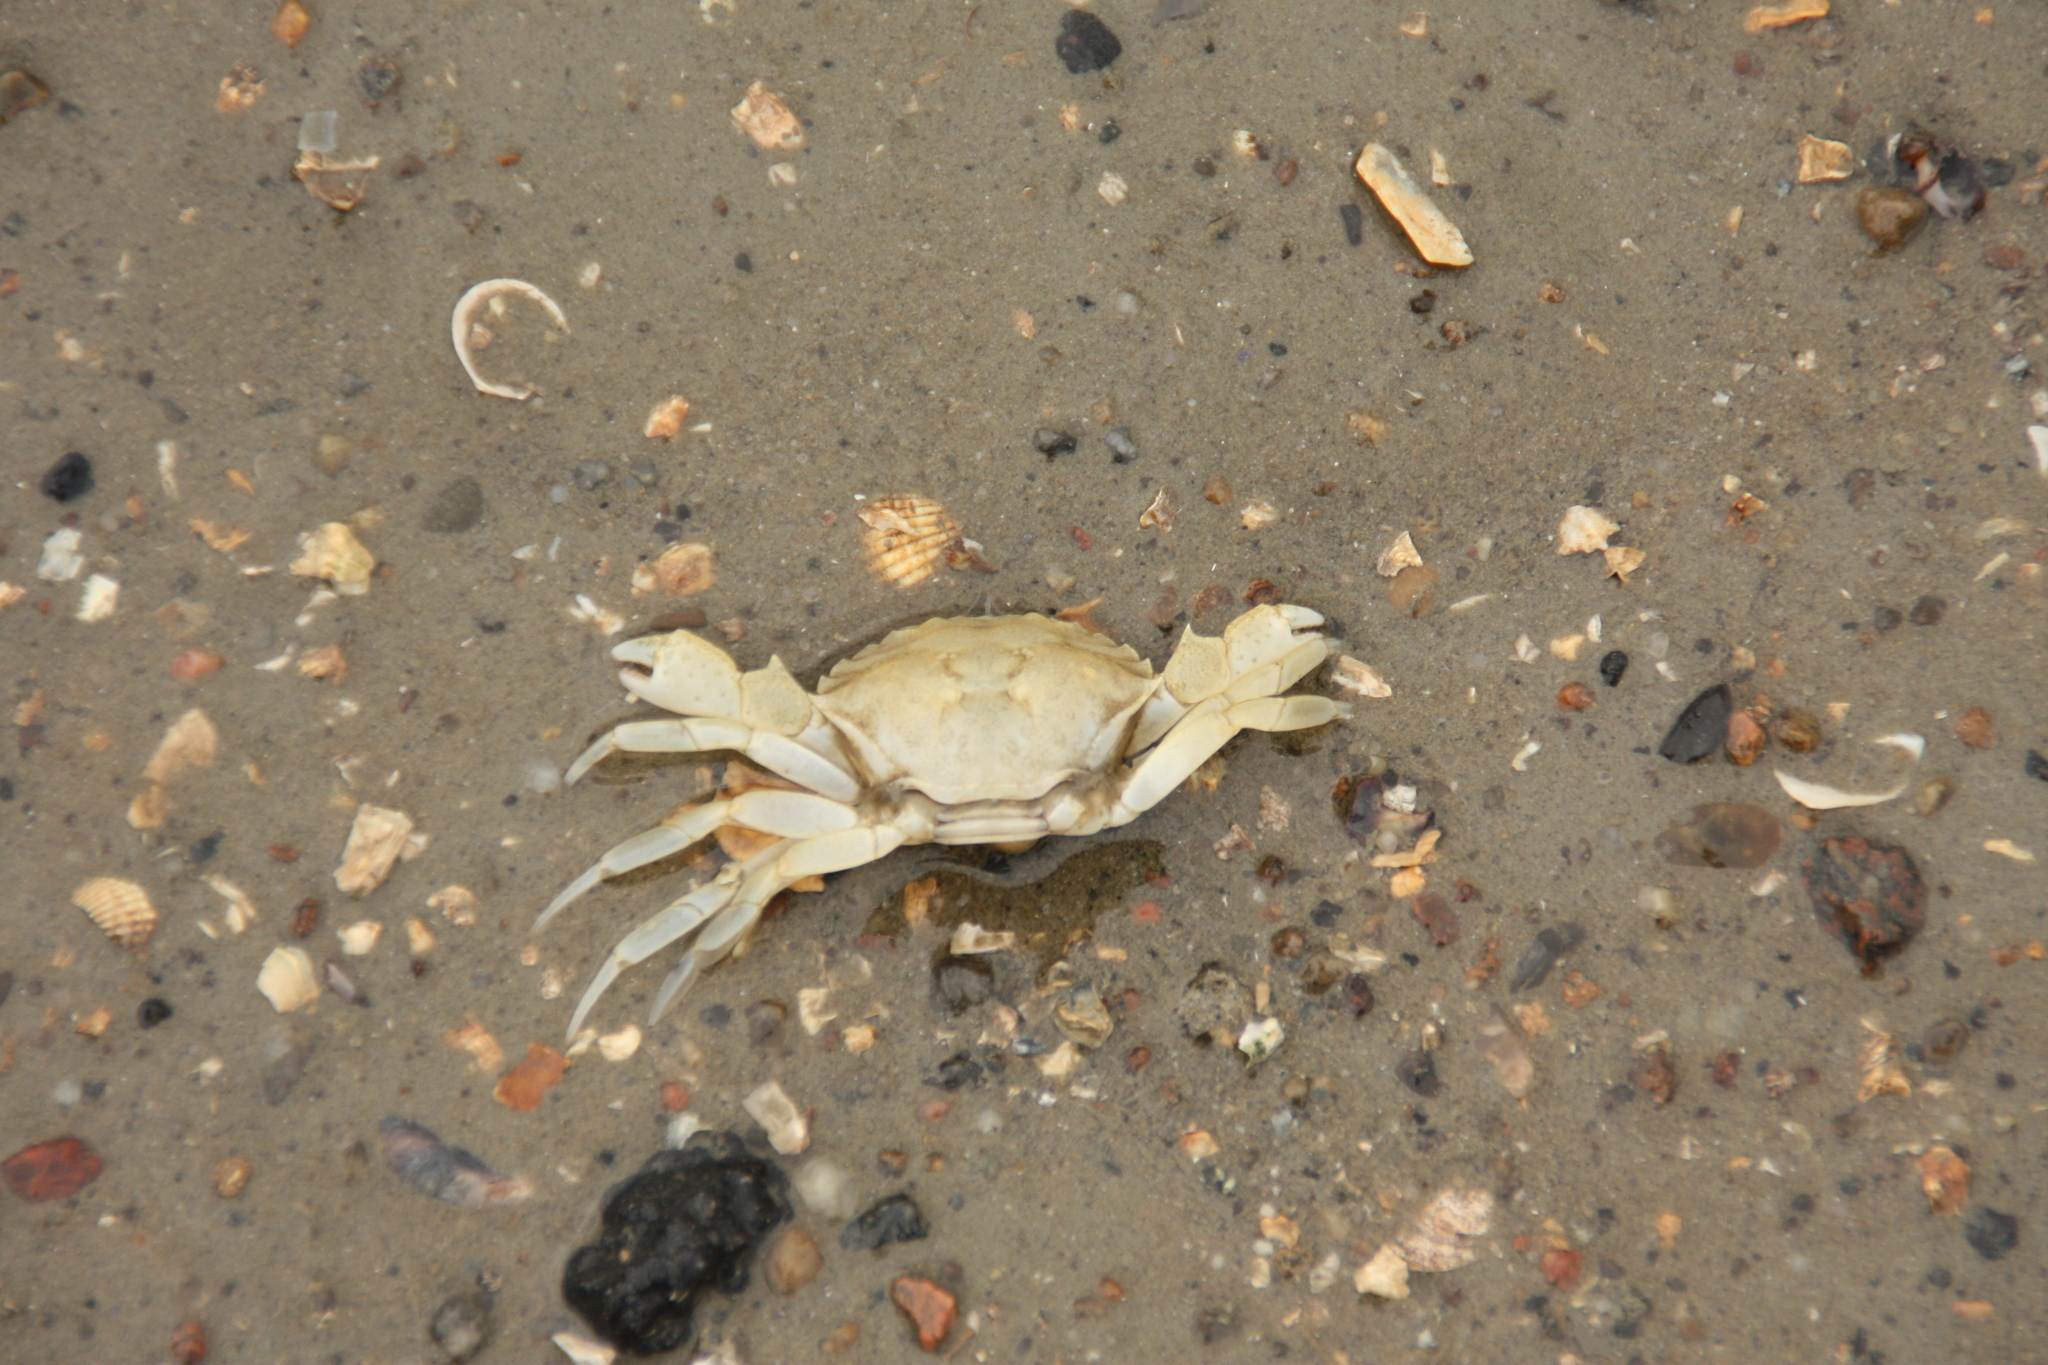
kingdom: Animalia
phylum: Arthropoda
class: Malacostraca
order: Decapoda
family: Carcinidae
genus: Carcinus
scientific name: Carcinus maenas
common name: European green crab
